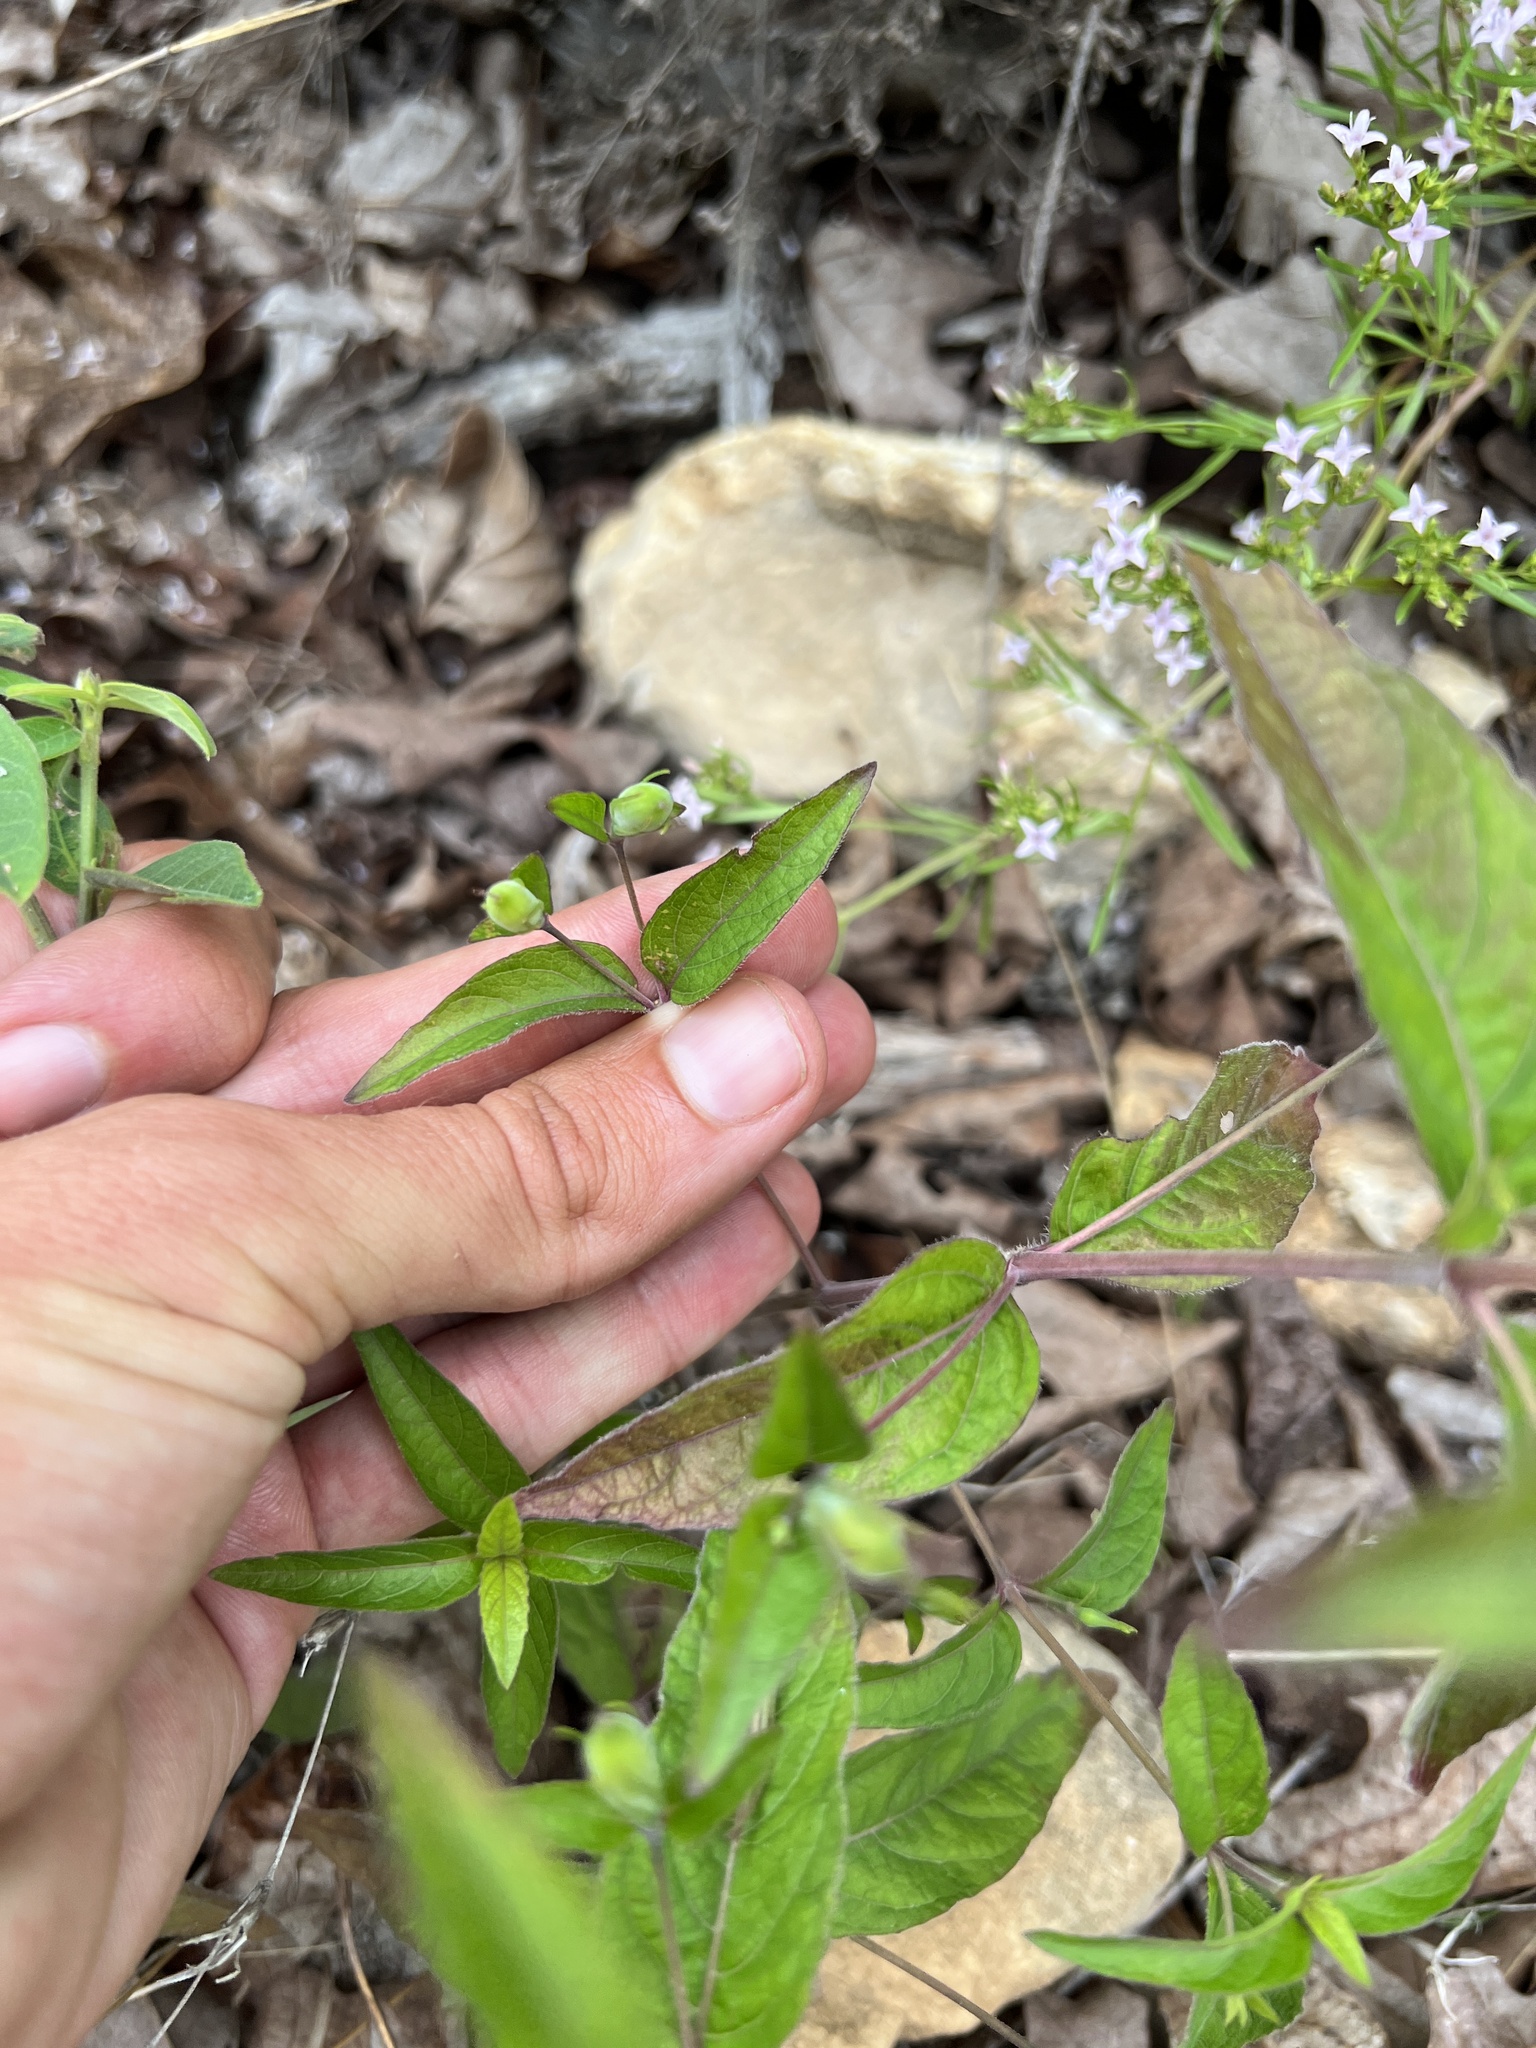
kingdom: Plantae
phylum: Tracheophyta
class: Magnoliopsida
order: Lamiales
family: Acanthaceae
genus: Ruellia
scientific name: Ruellia pedunculata
